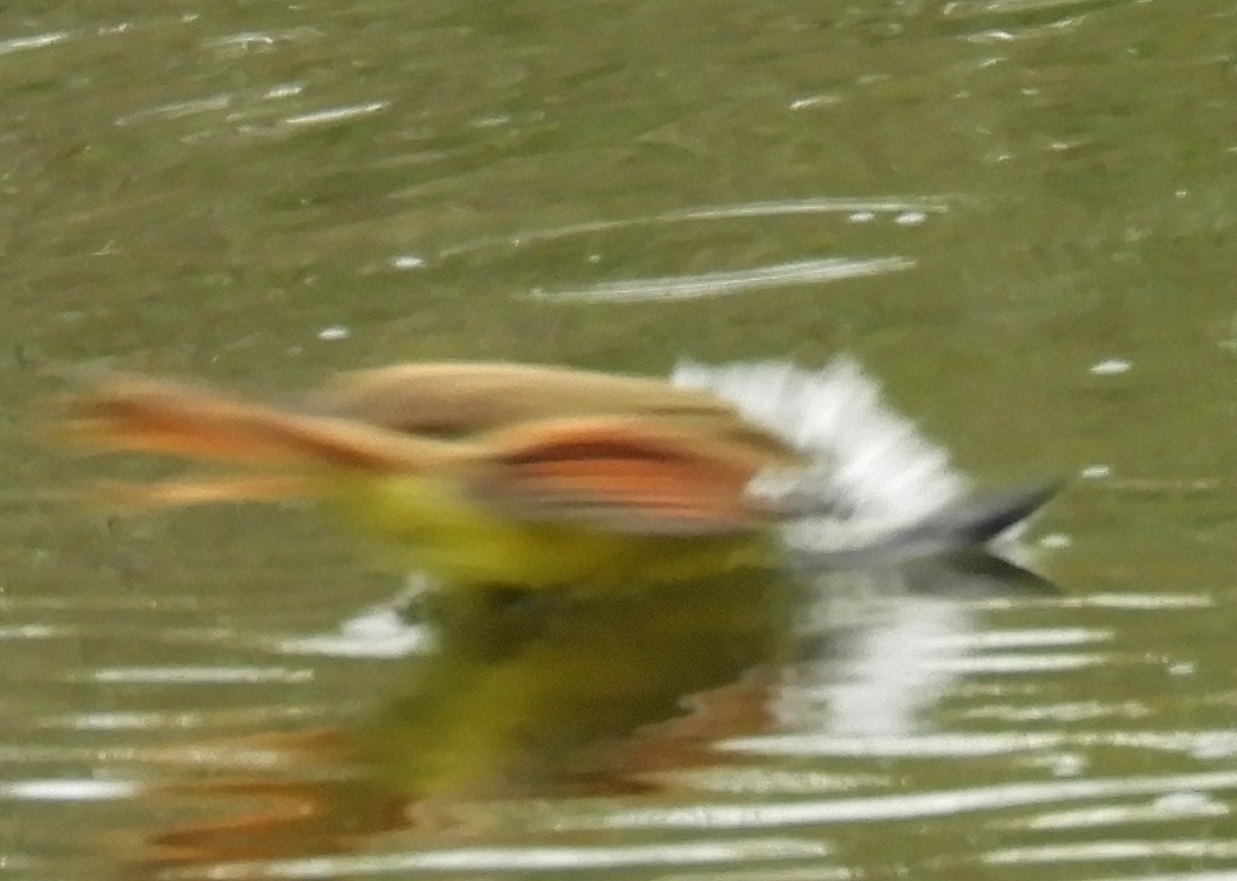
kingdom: Animalia
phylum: Chordata
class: Aves
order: Passeriformes
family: Tyrannidae
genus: Pitangus
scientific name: Pitangus sulphuratus
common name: Great kiskadee
